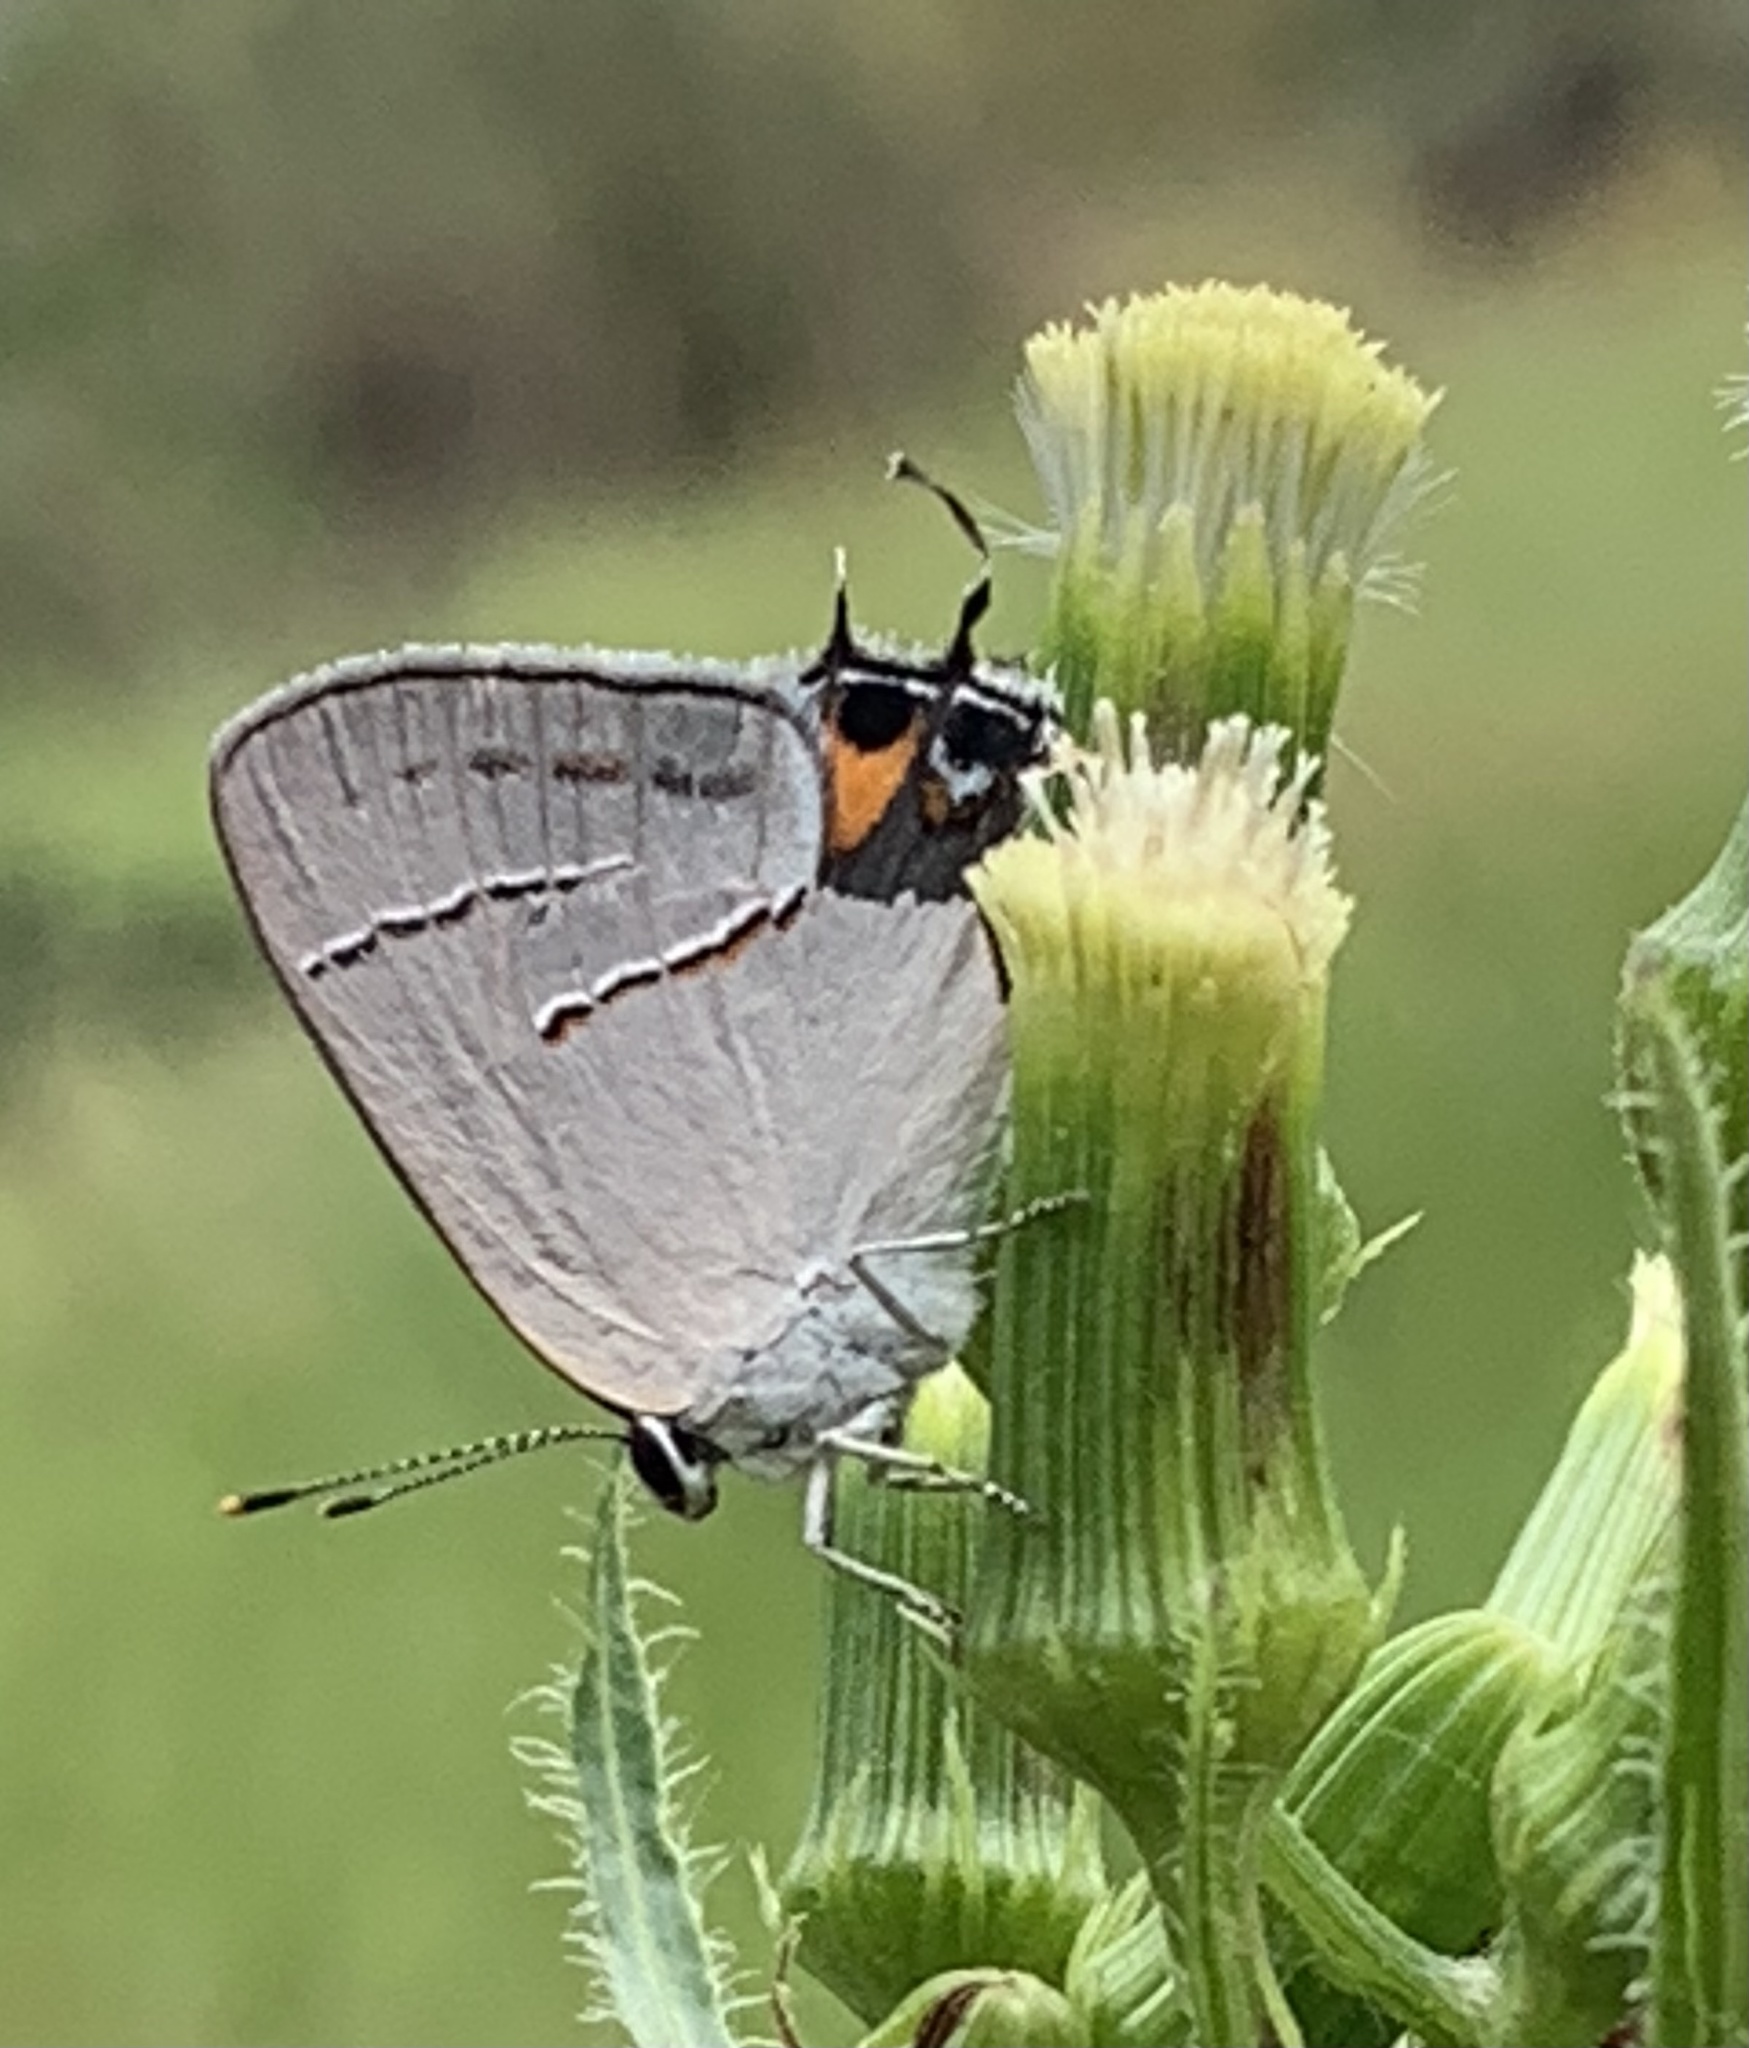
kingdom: Animalia
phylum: Arthropoda
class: Insecta
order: Lepidoptera
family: Lycaenidae
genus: Strymon
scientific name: Strymon melinus
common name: Gray hairstreak
